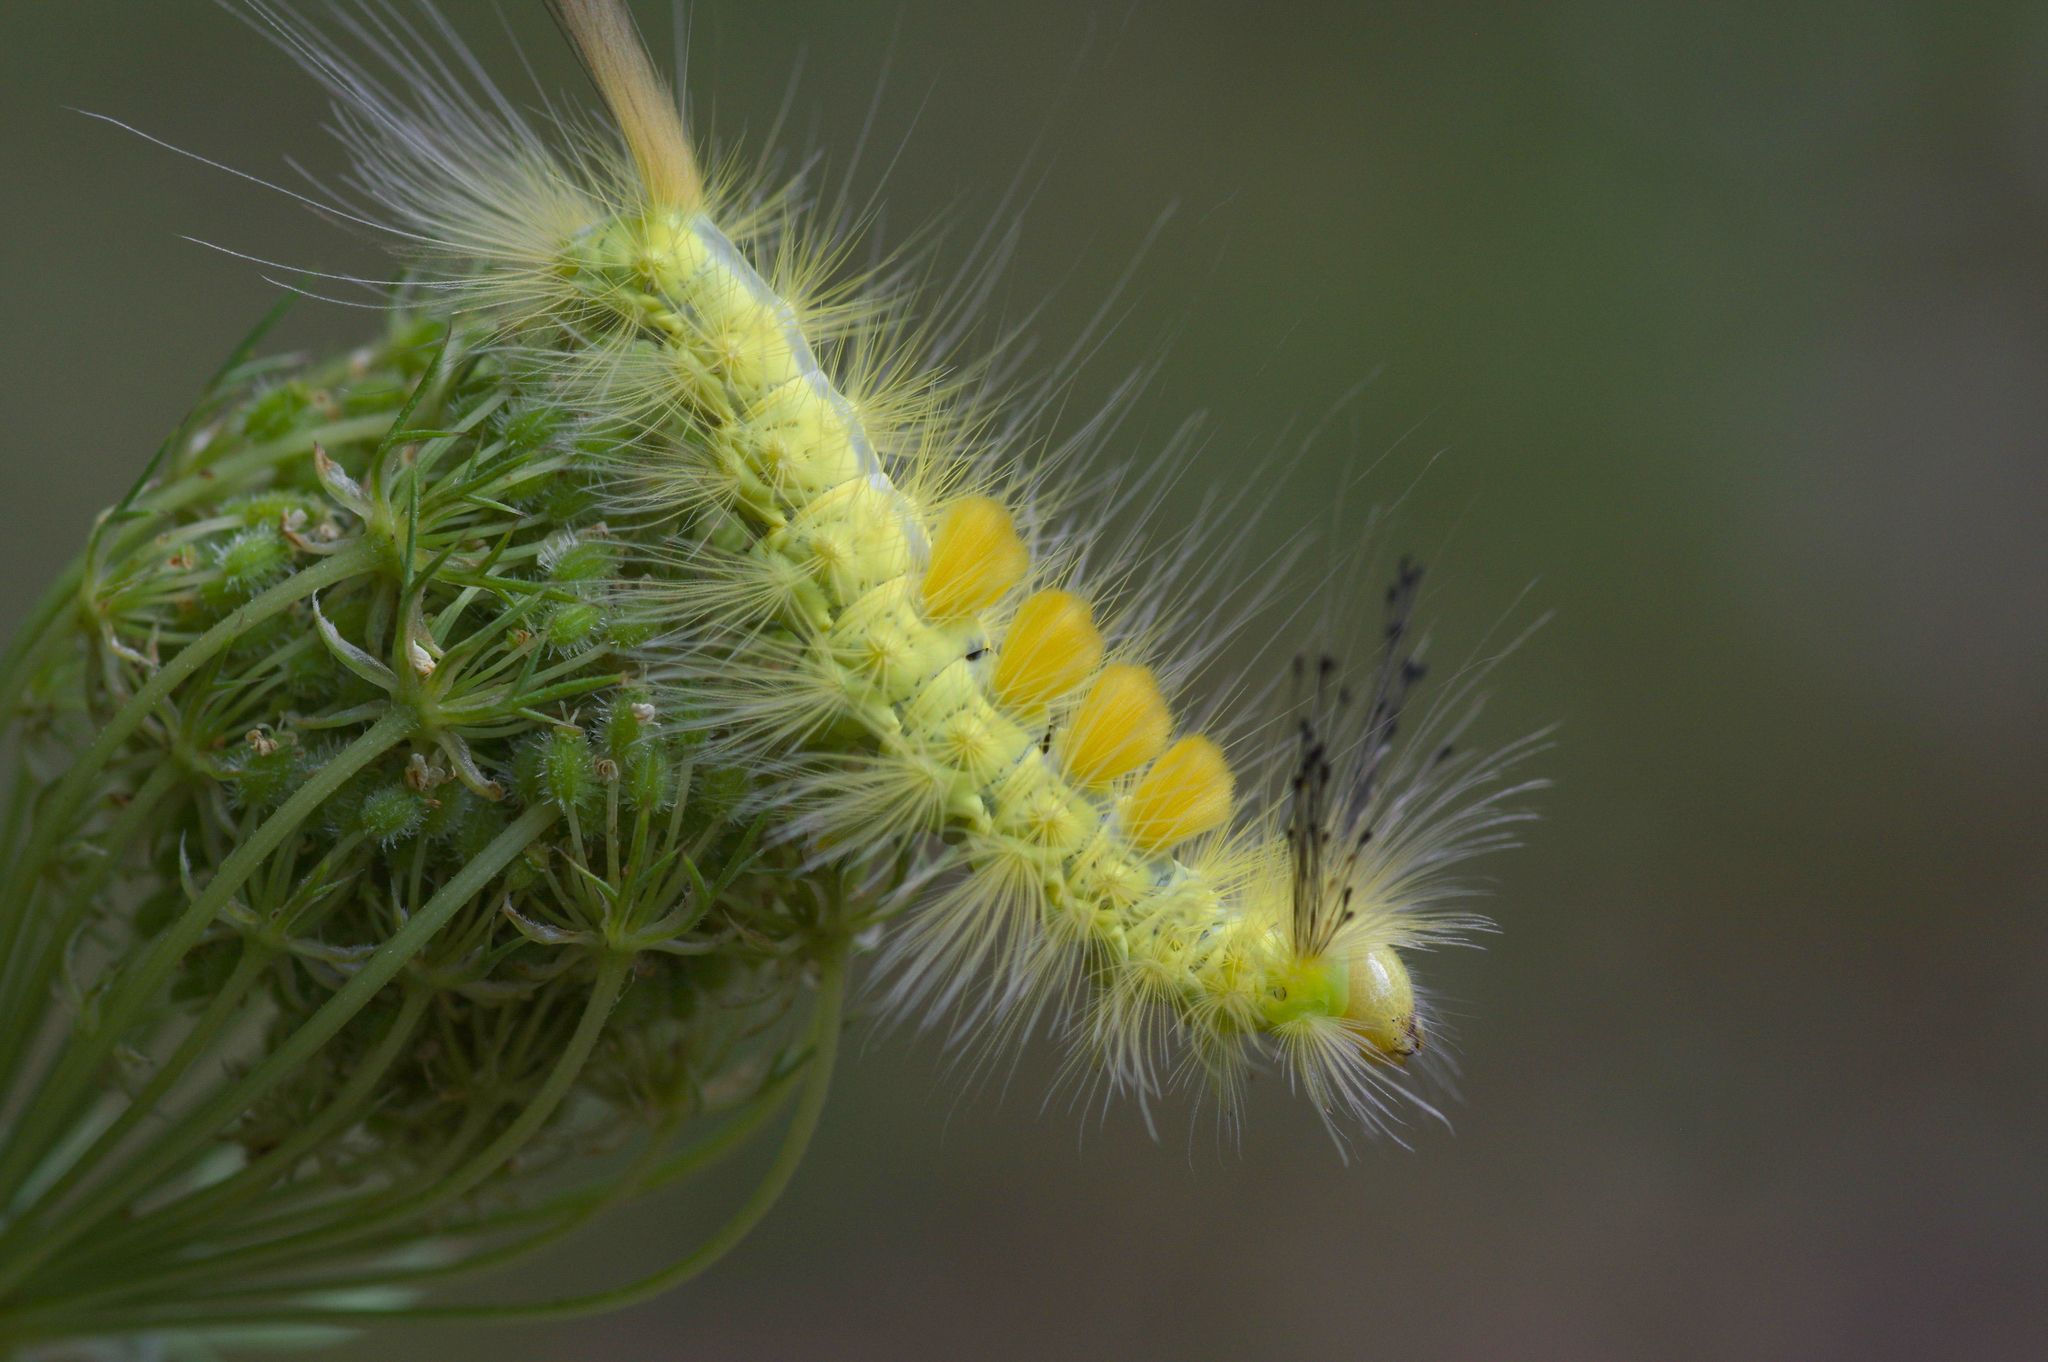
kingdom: Animalia
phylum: Arthropoda
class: Insecta
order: Lepidoptera
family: Erebidae
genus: Orgyia
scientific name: Orgyia definita
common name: Definite tussock moth
